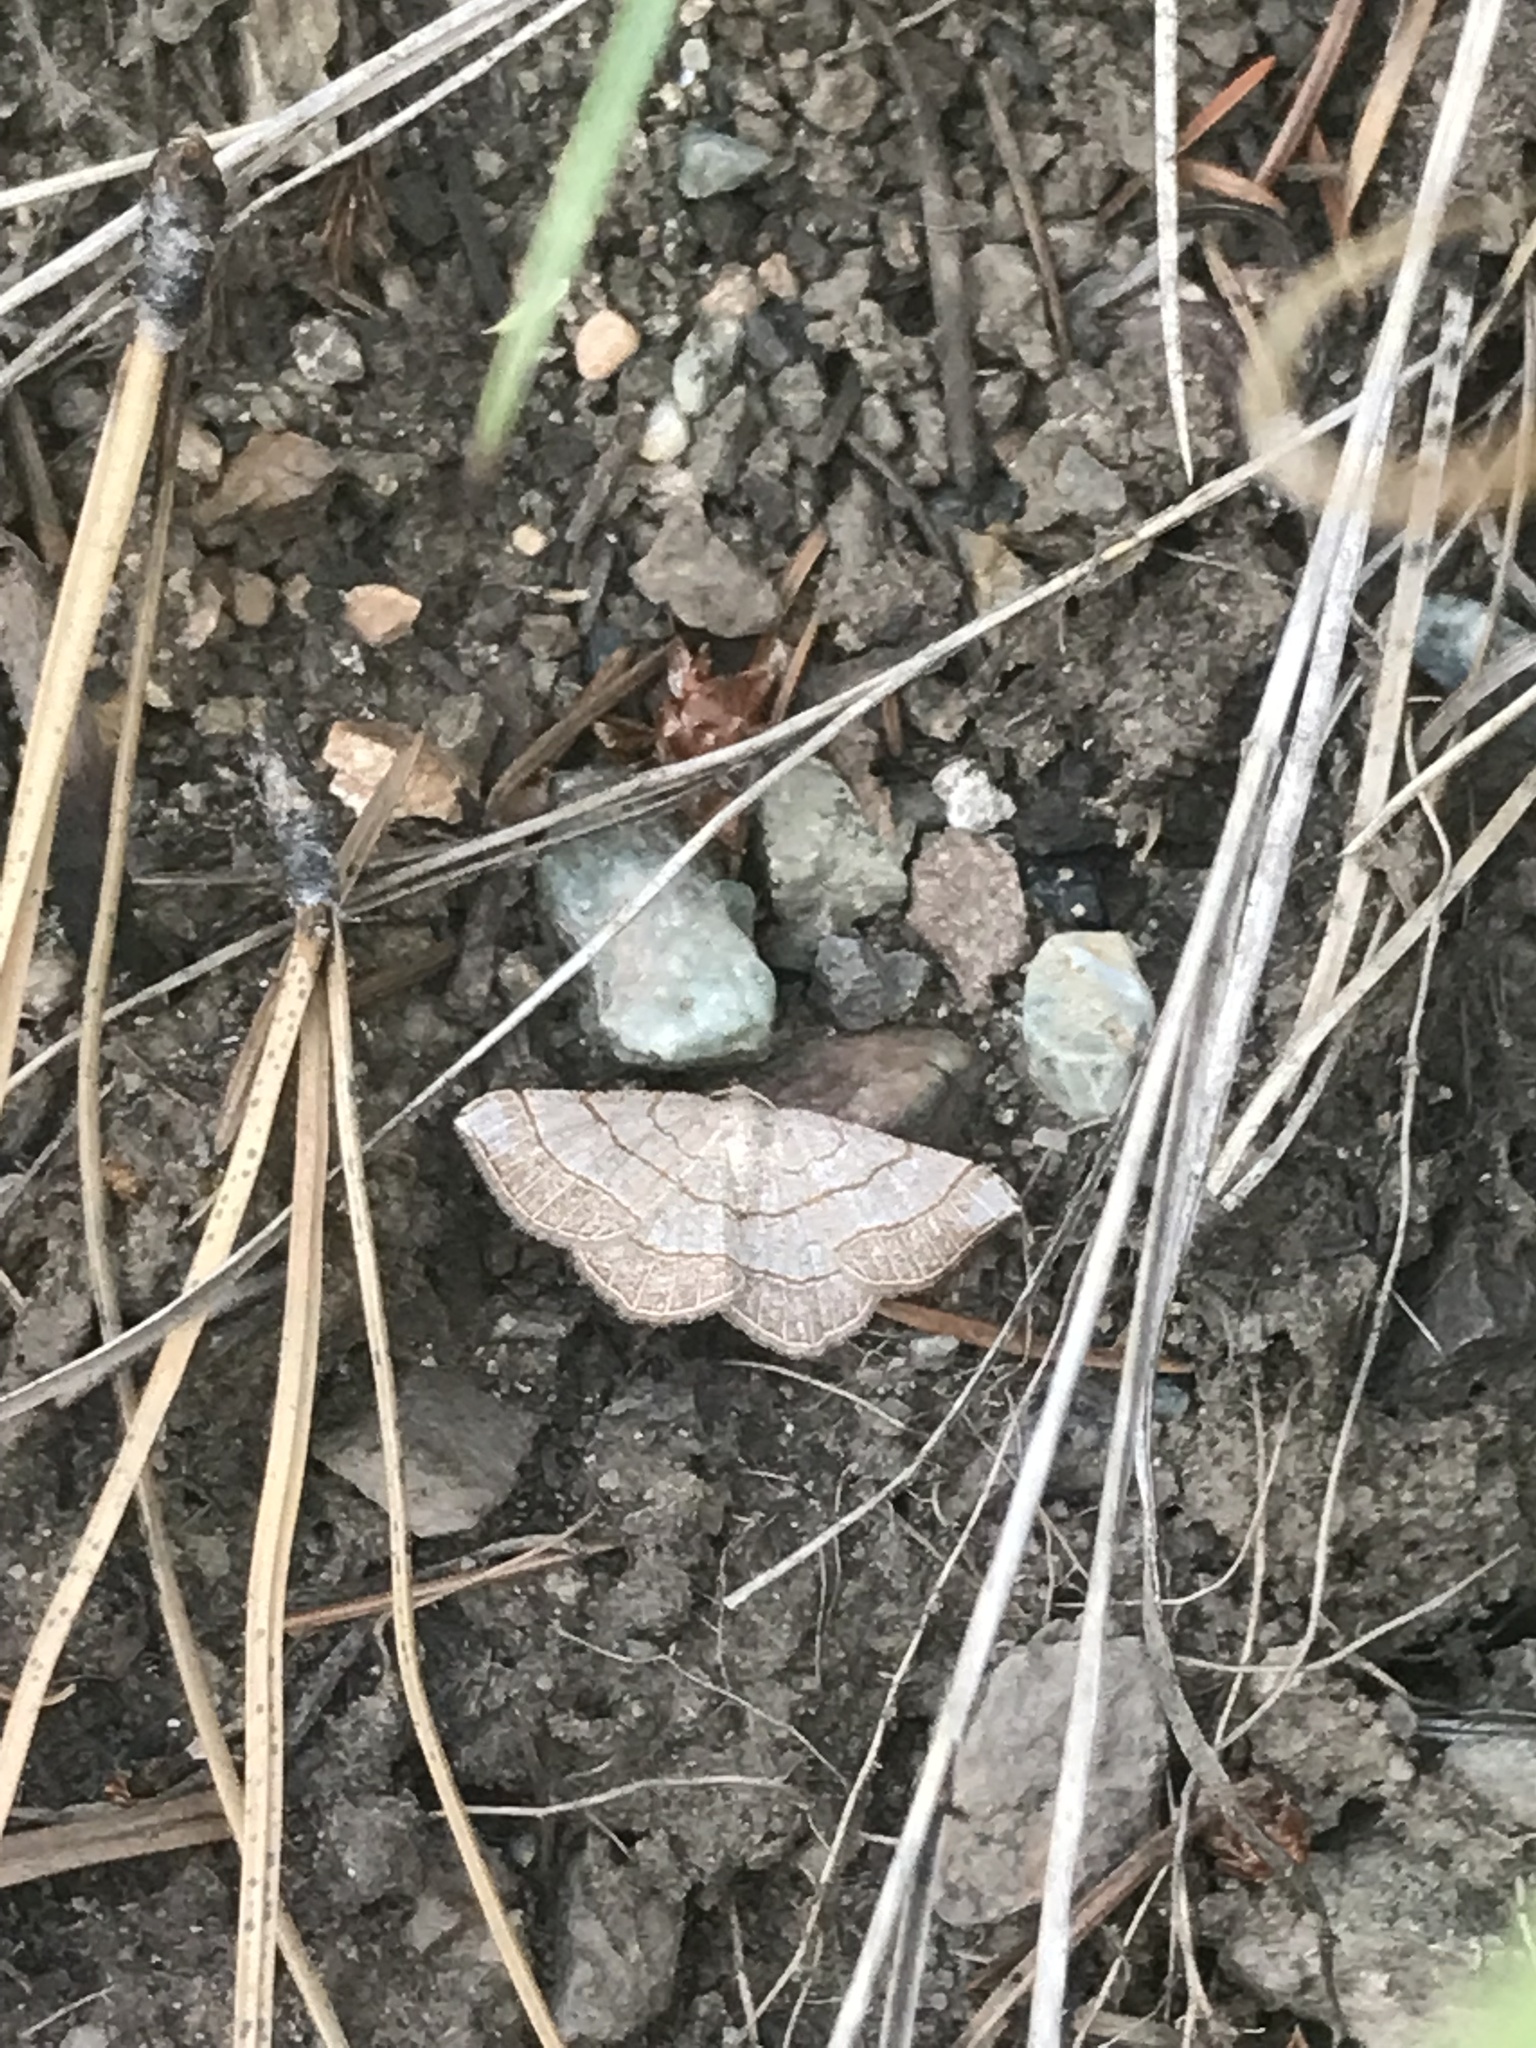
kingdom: Animalia
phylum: Arthropoda
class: Insecta
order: Lepidoptera
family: Geometridae
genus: Eumacaria
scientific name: Eumacaria madopata
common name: Brown-bordered geometer
